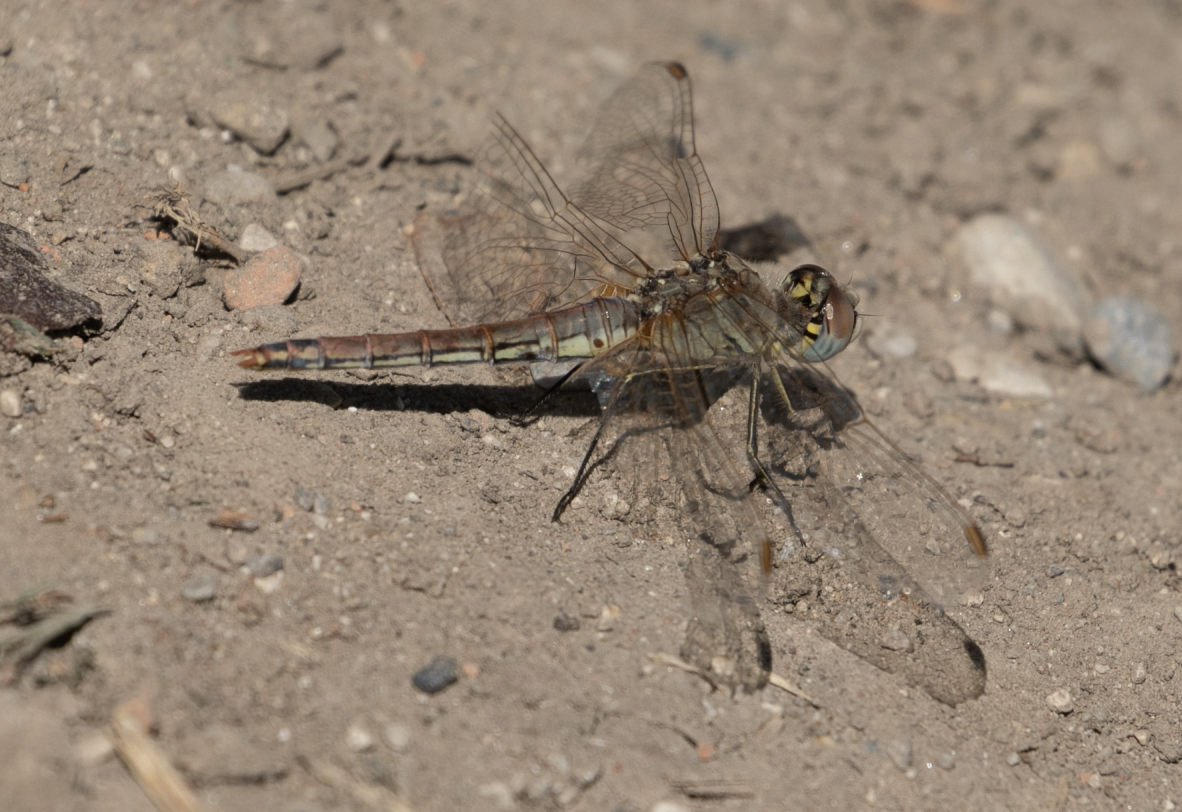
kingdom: Animalia
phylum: Arthropoda
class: Insecta
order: Odonata
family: Libellulidae
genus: Sympetrum
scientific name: Sympetrum fonscolombii
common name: Red-veined darter
